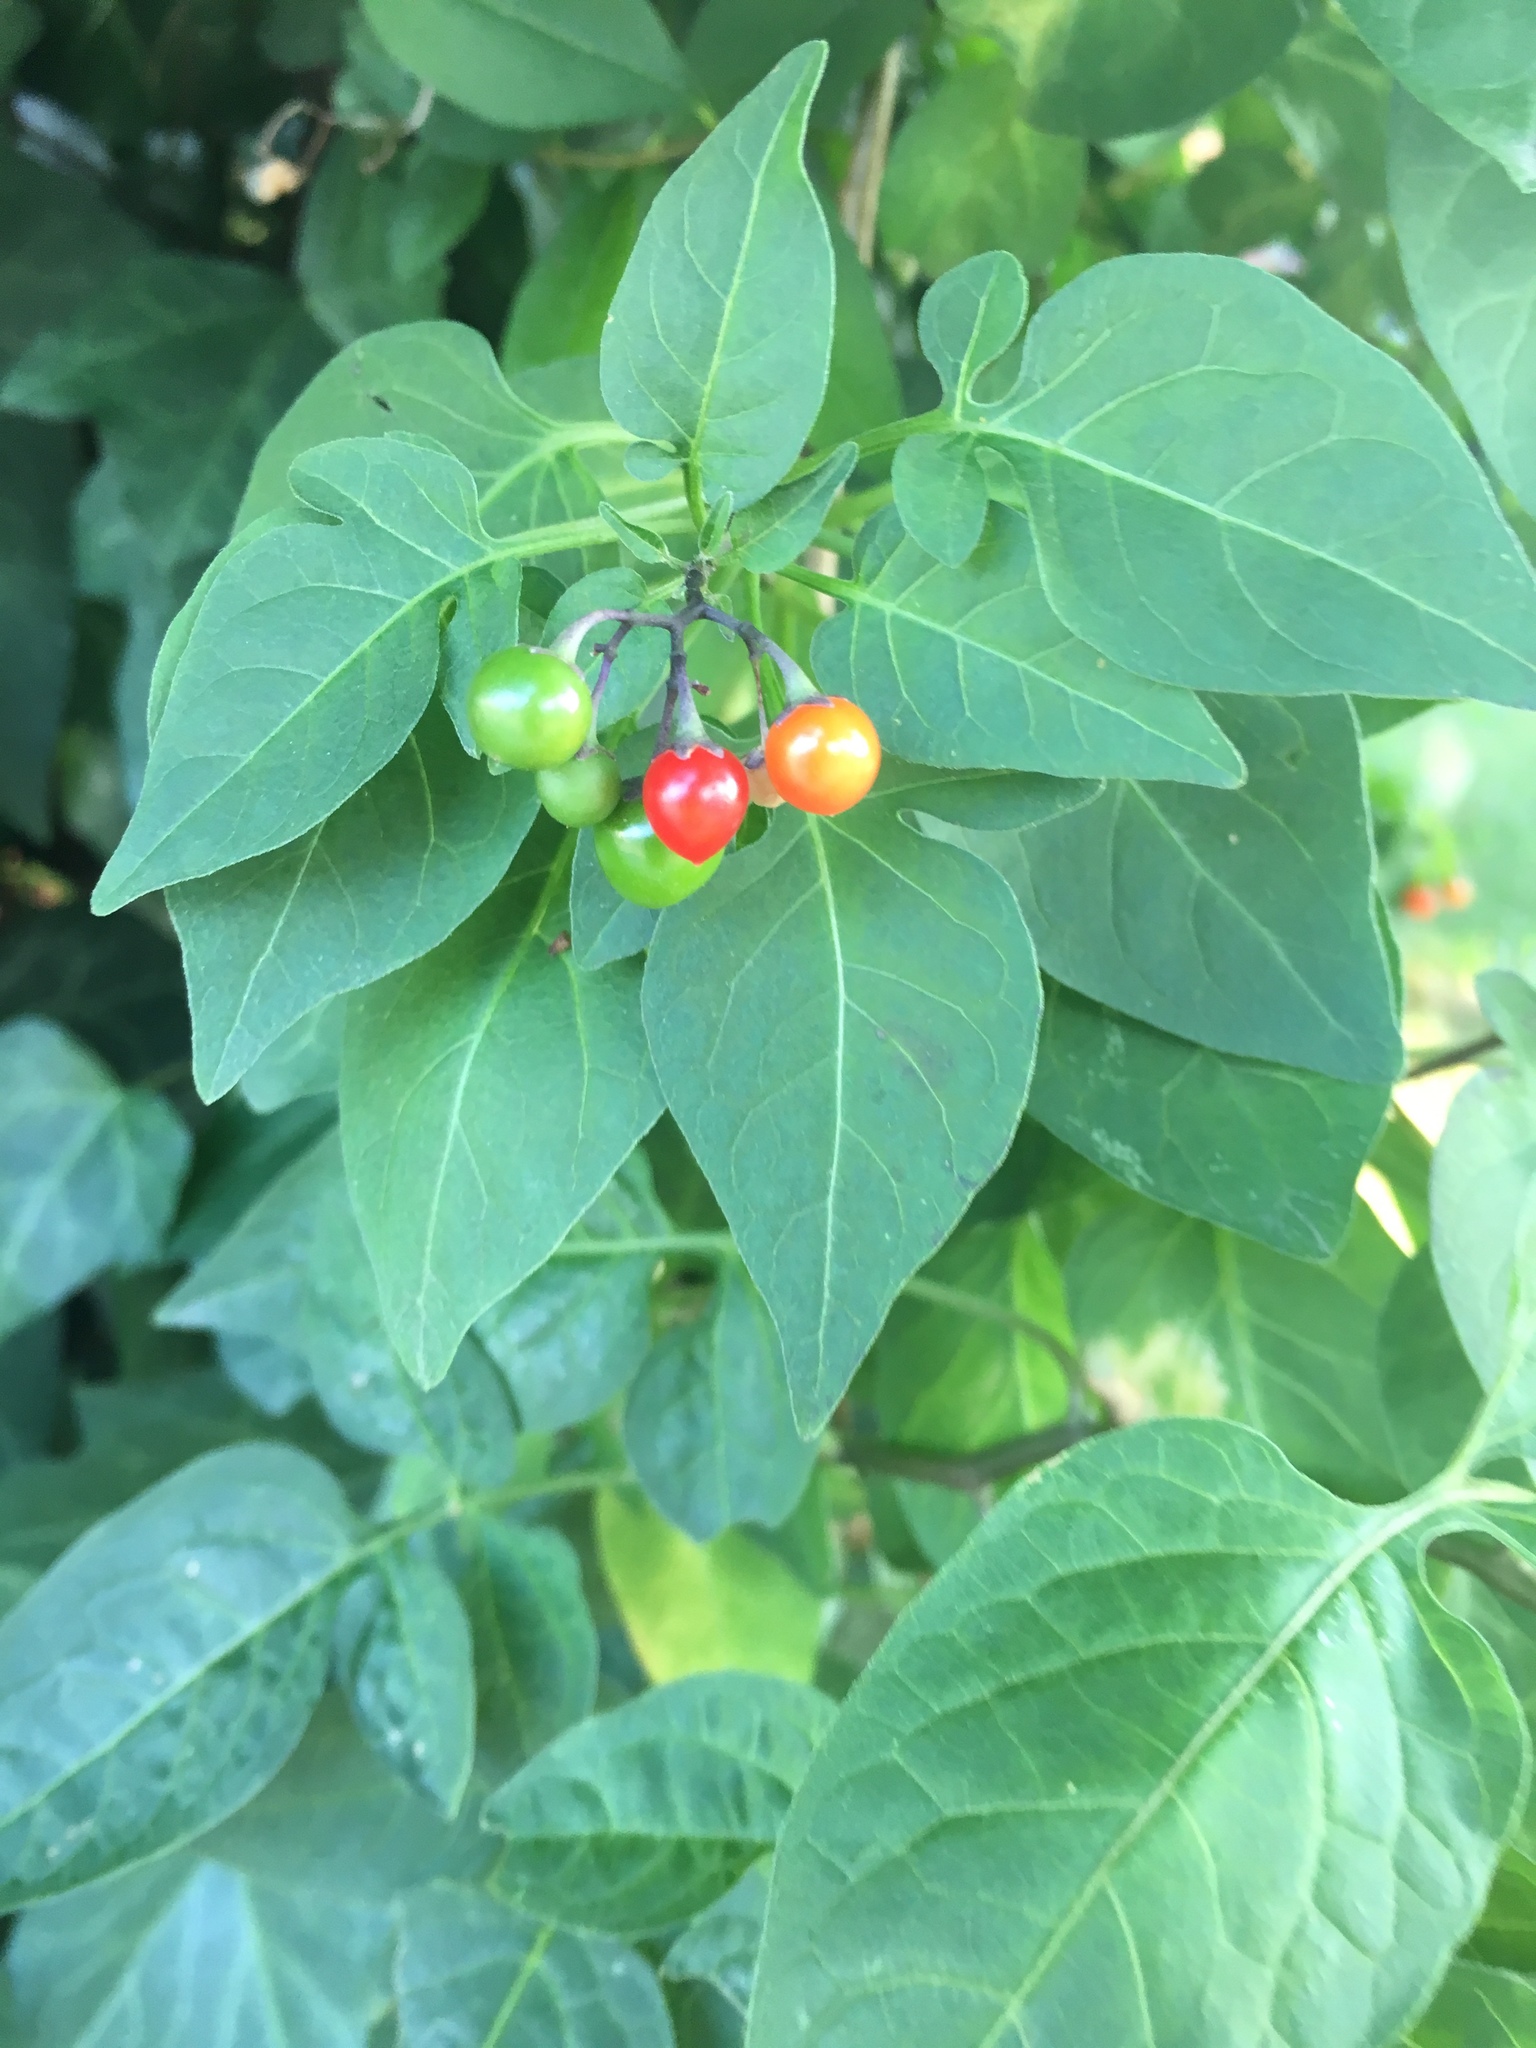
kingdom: Plantae
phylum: Tracheophyta
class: Magnoliopsida
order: Solanales
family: Solanaceae
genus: Solanum
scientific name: Solanum dulcamara
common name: Climbing nightshade
